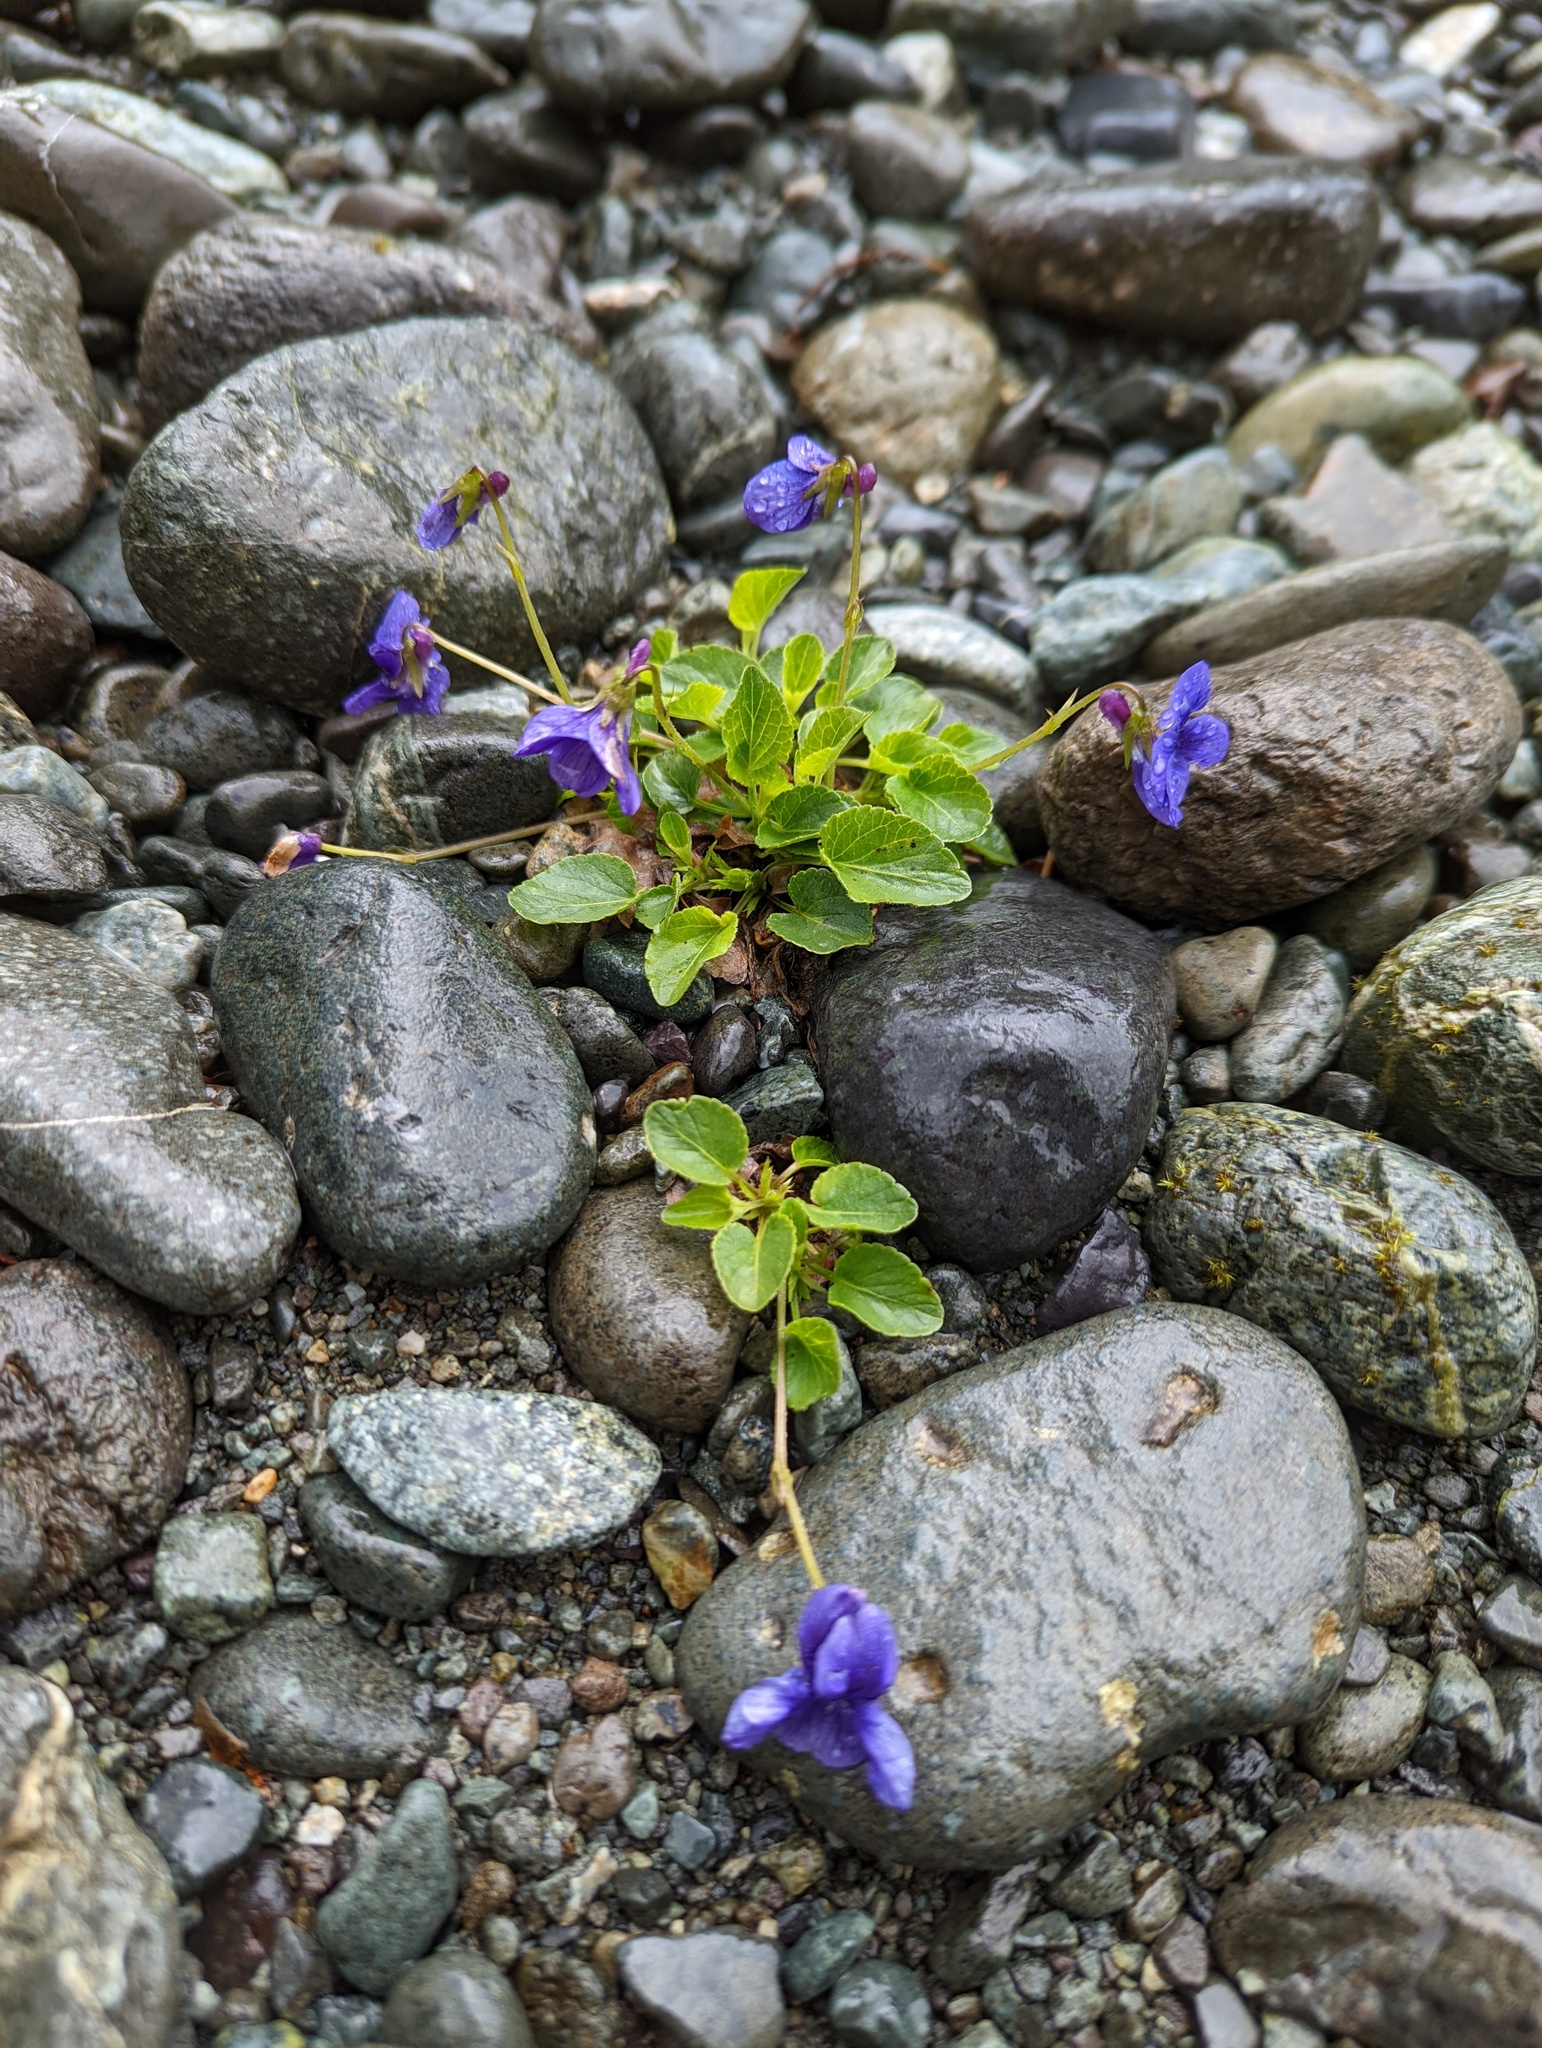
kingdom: Plantae
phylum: Tracheophyta
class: Magnoliopsida
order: Malpighiales
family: Violaceae
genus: Viola
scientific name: Viola adunca
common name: Sand violet
